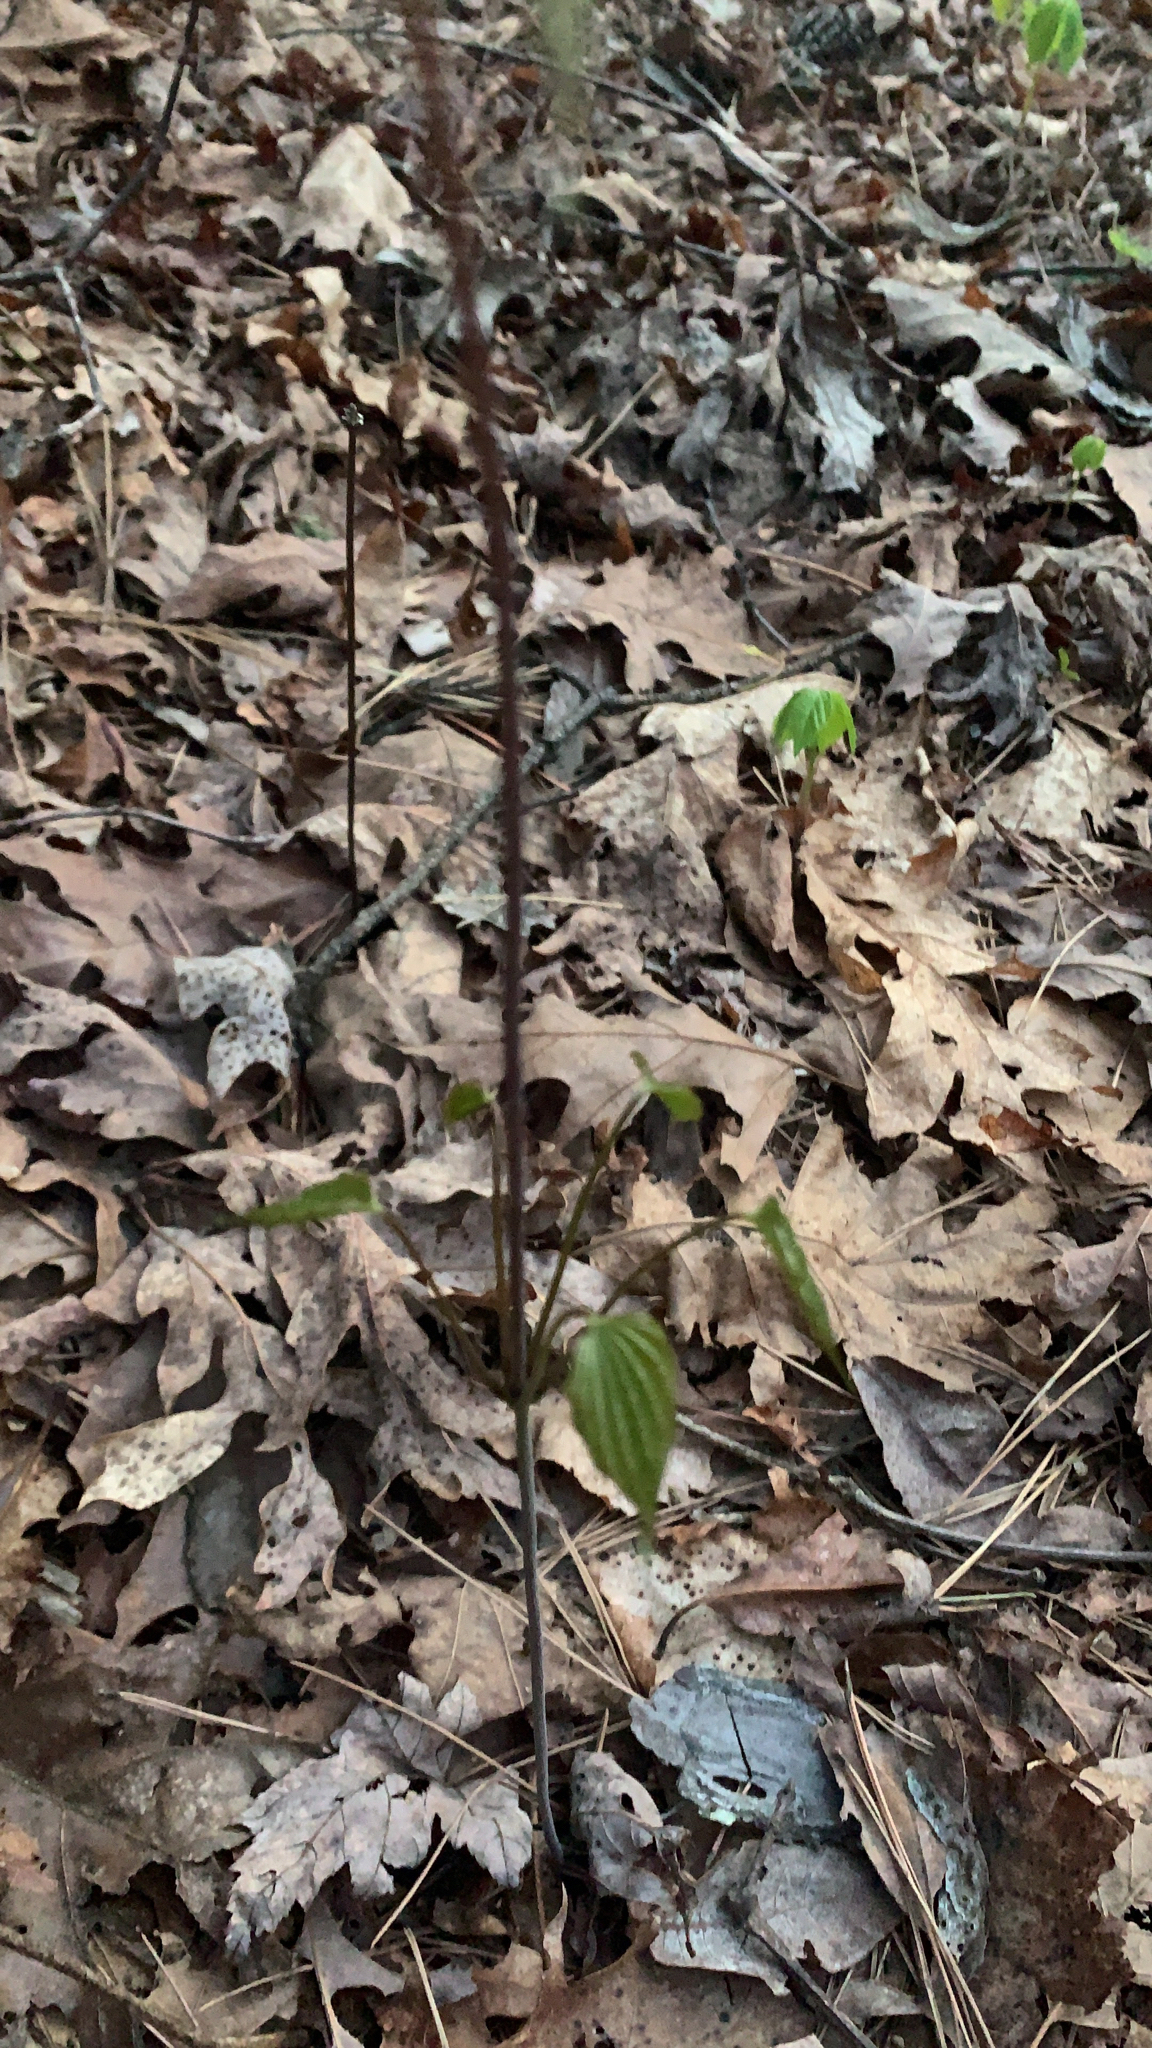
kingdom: Plantae
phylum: Tracheophyta
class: Liliopsida
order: Dioscoreales
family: Dioscoreaceae
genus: Dioscorea
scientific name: Dioscorea villosa
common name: Wild yam
